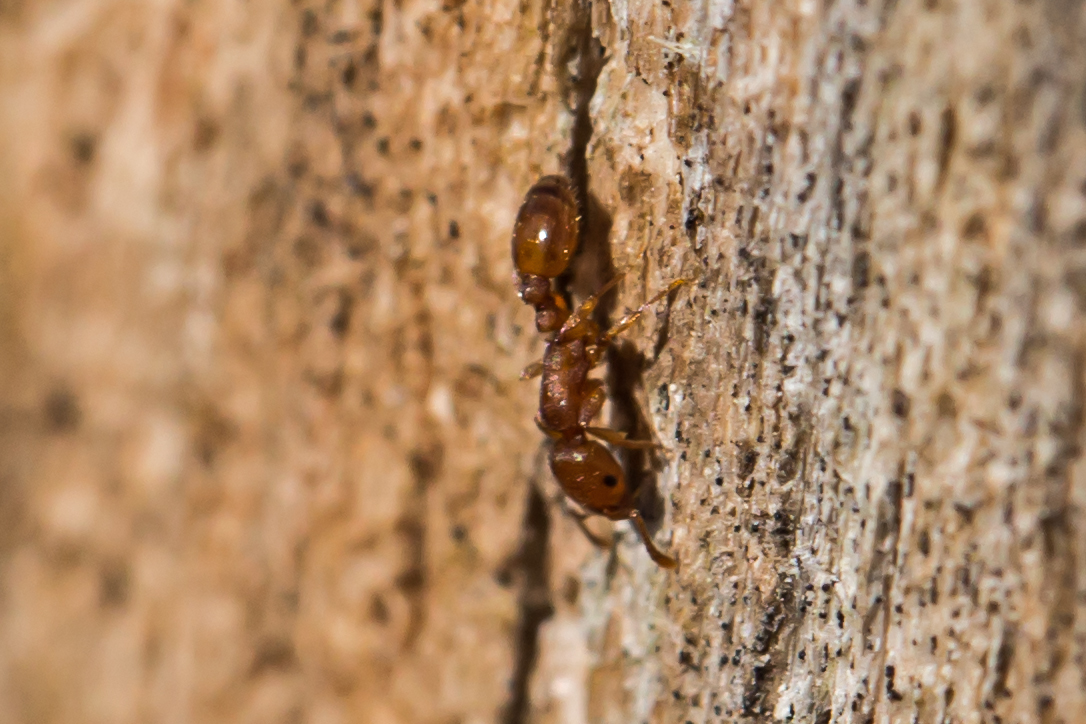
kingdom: Animalia
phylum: Arthropoda
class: Insecta
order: Hymenoptera
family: Formicidae
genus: Leptothorax
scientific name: Leptothorax schaumii
